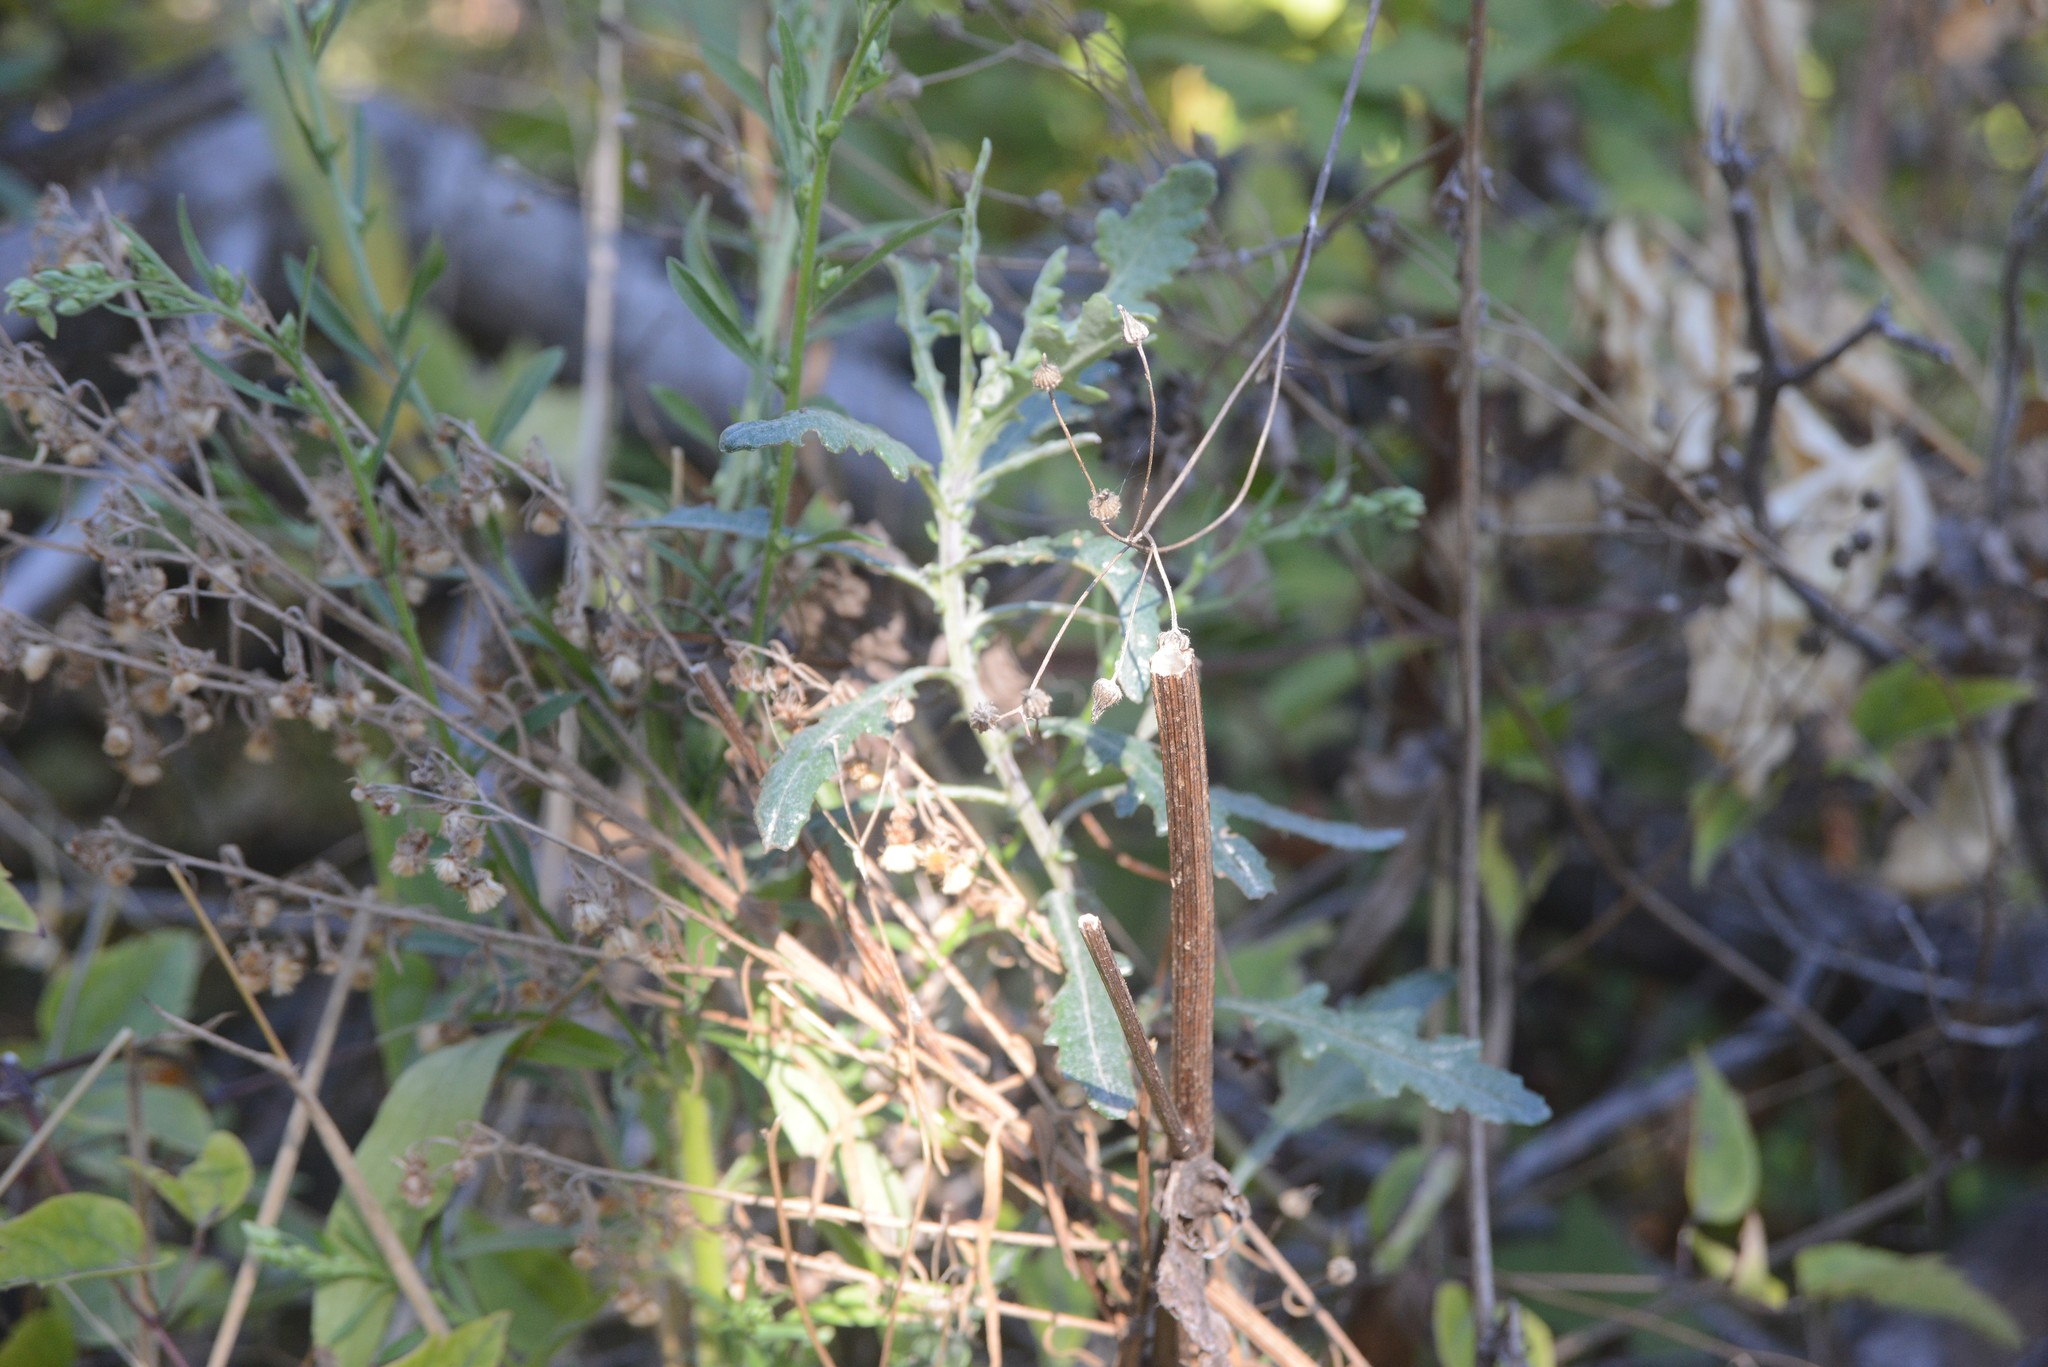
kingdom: Plantae
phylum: Tracheophyta
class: Magnoliopsida
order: Asterales
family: Asteraceae
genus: Senecio
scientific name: Senecio glomeratus
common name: Cutleaf burnweed
